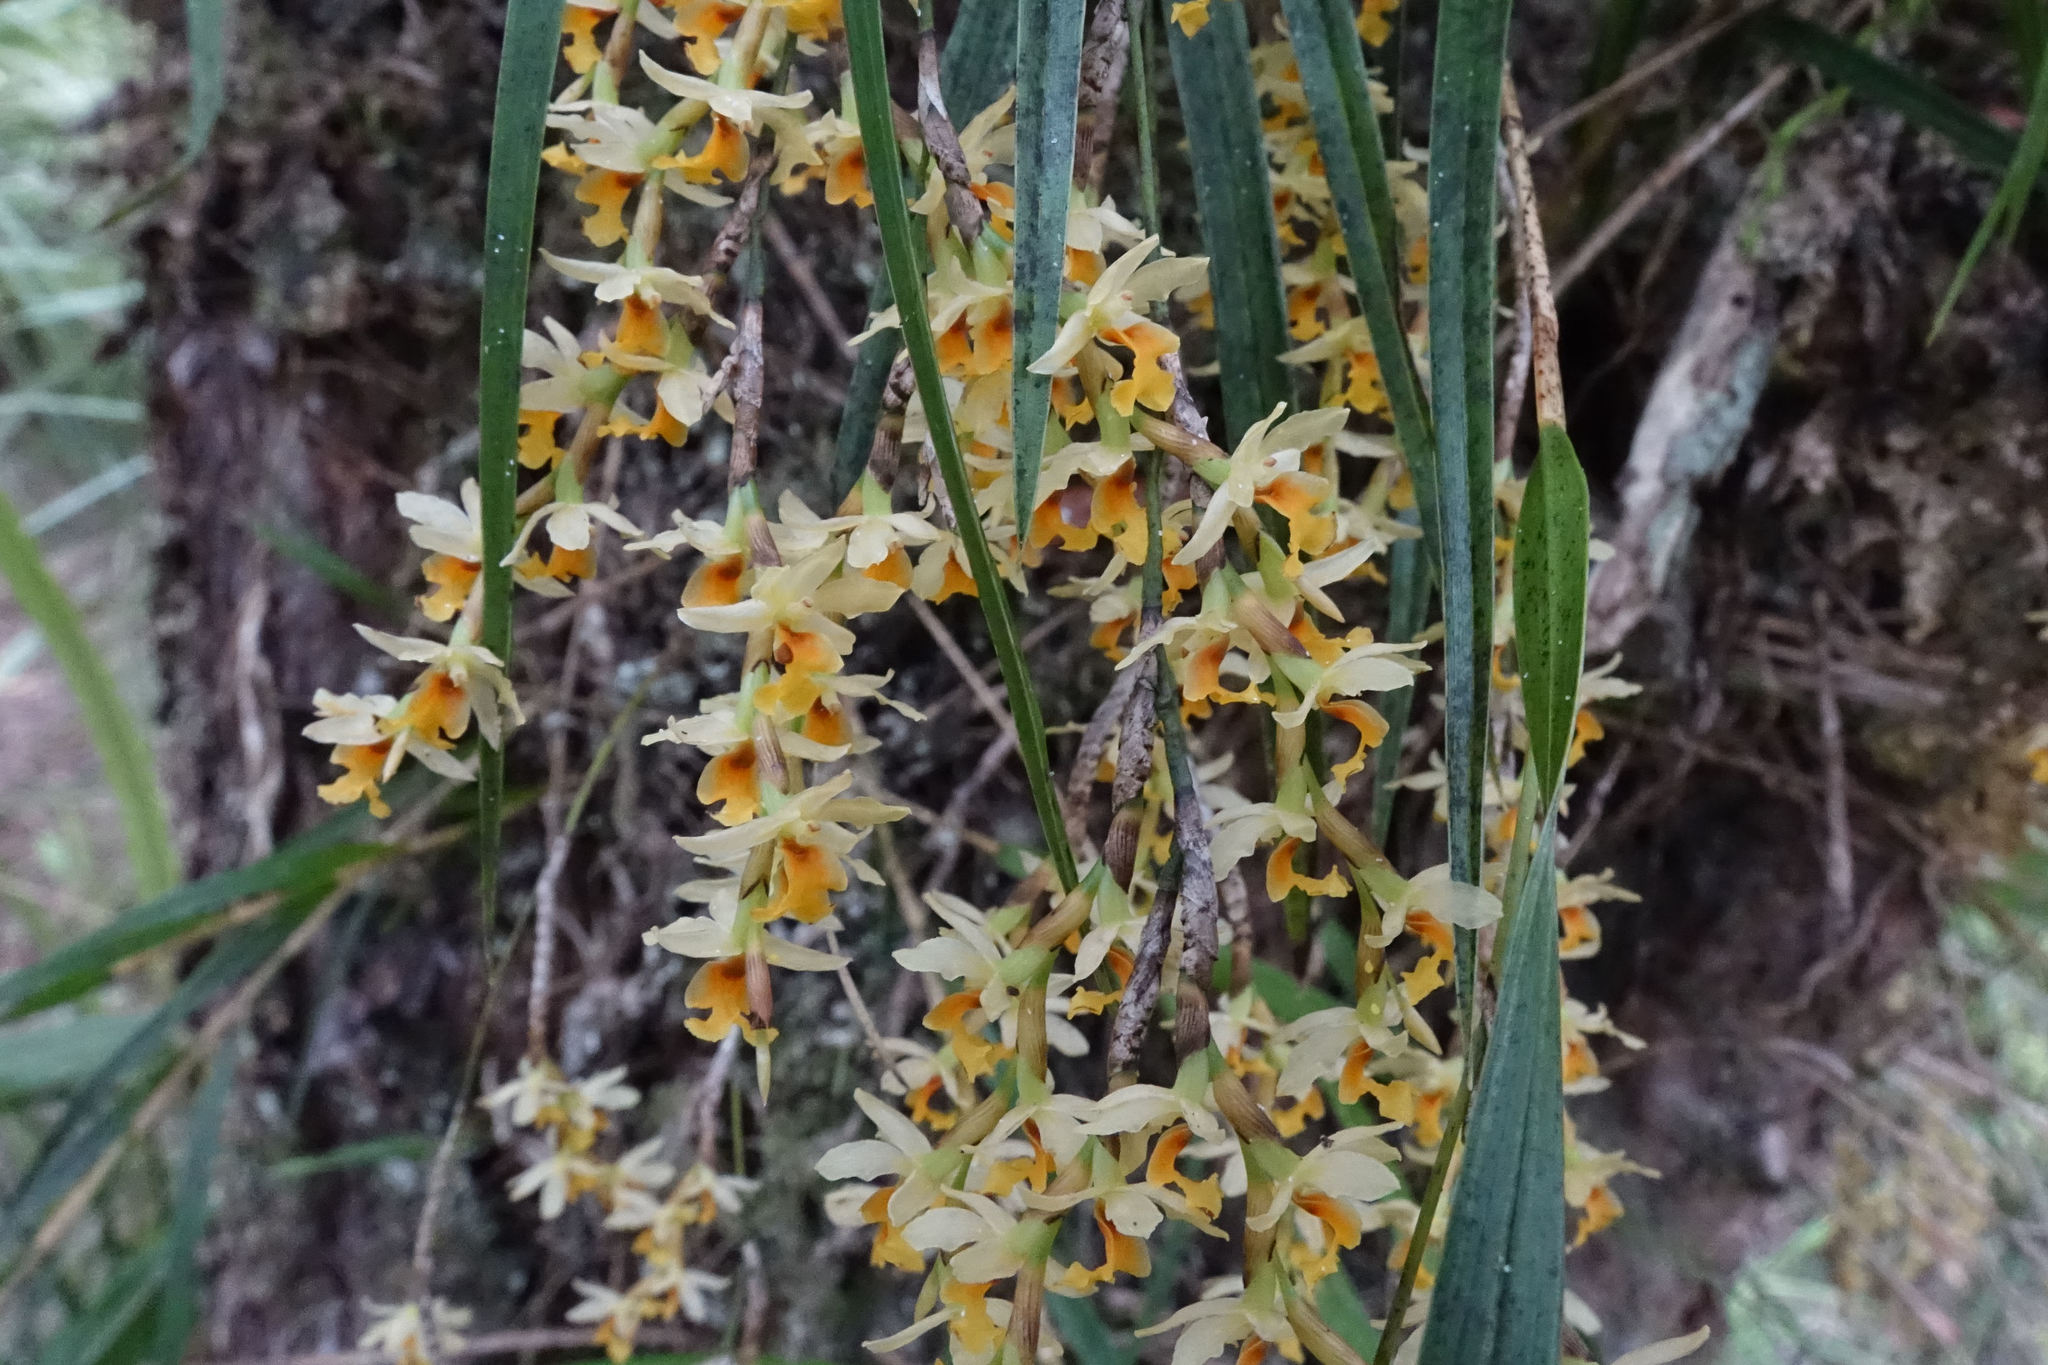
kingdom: Plantae
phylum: Tracheophyta
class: Liliopsida
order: Asparagales
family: Orchidaceae
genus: Earina
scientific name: Earina mucronata
